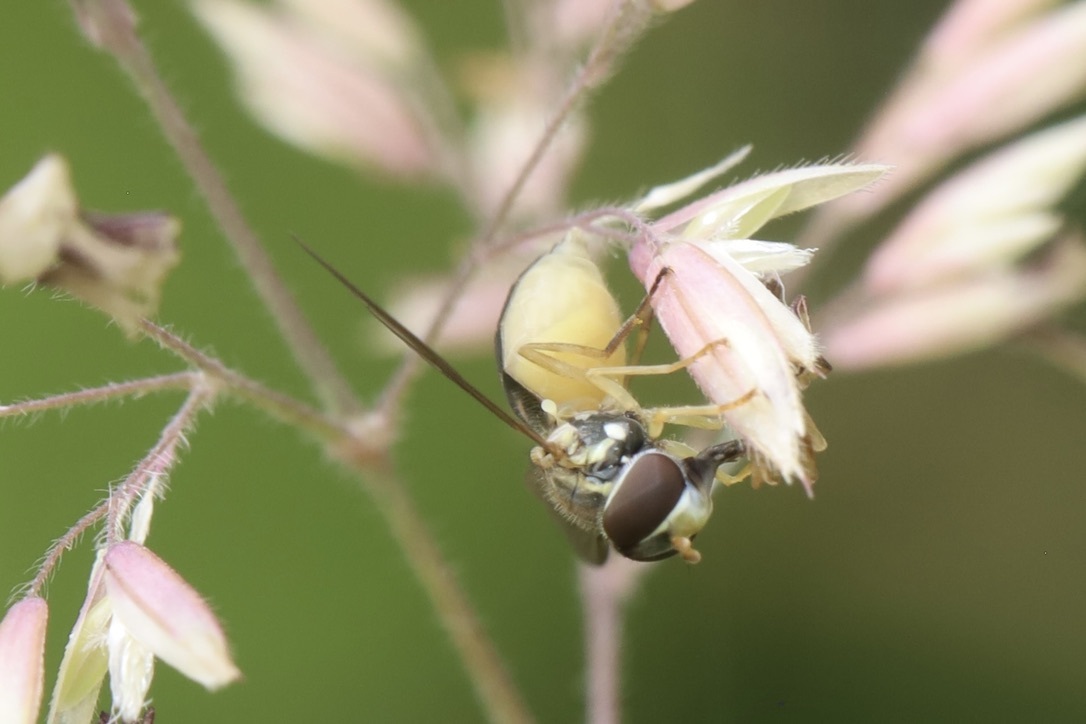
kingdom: Animalia
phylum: Arthropoda
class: Insecta
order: Diptera
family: Syrphidae
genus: Toxomerus
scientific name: Toxomerus marginatus
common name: Syrphid fly
